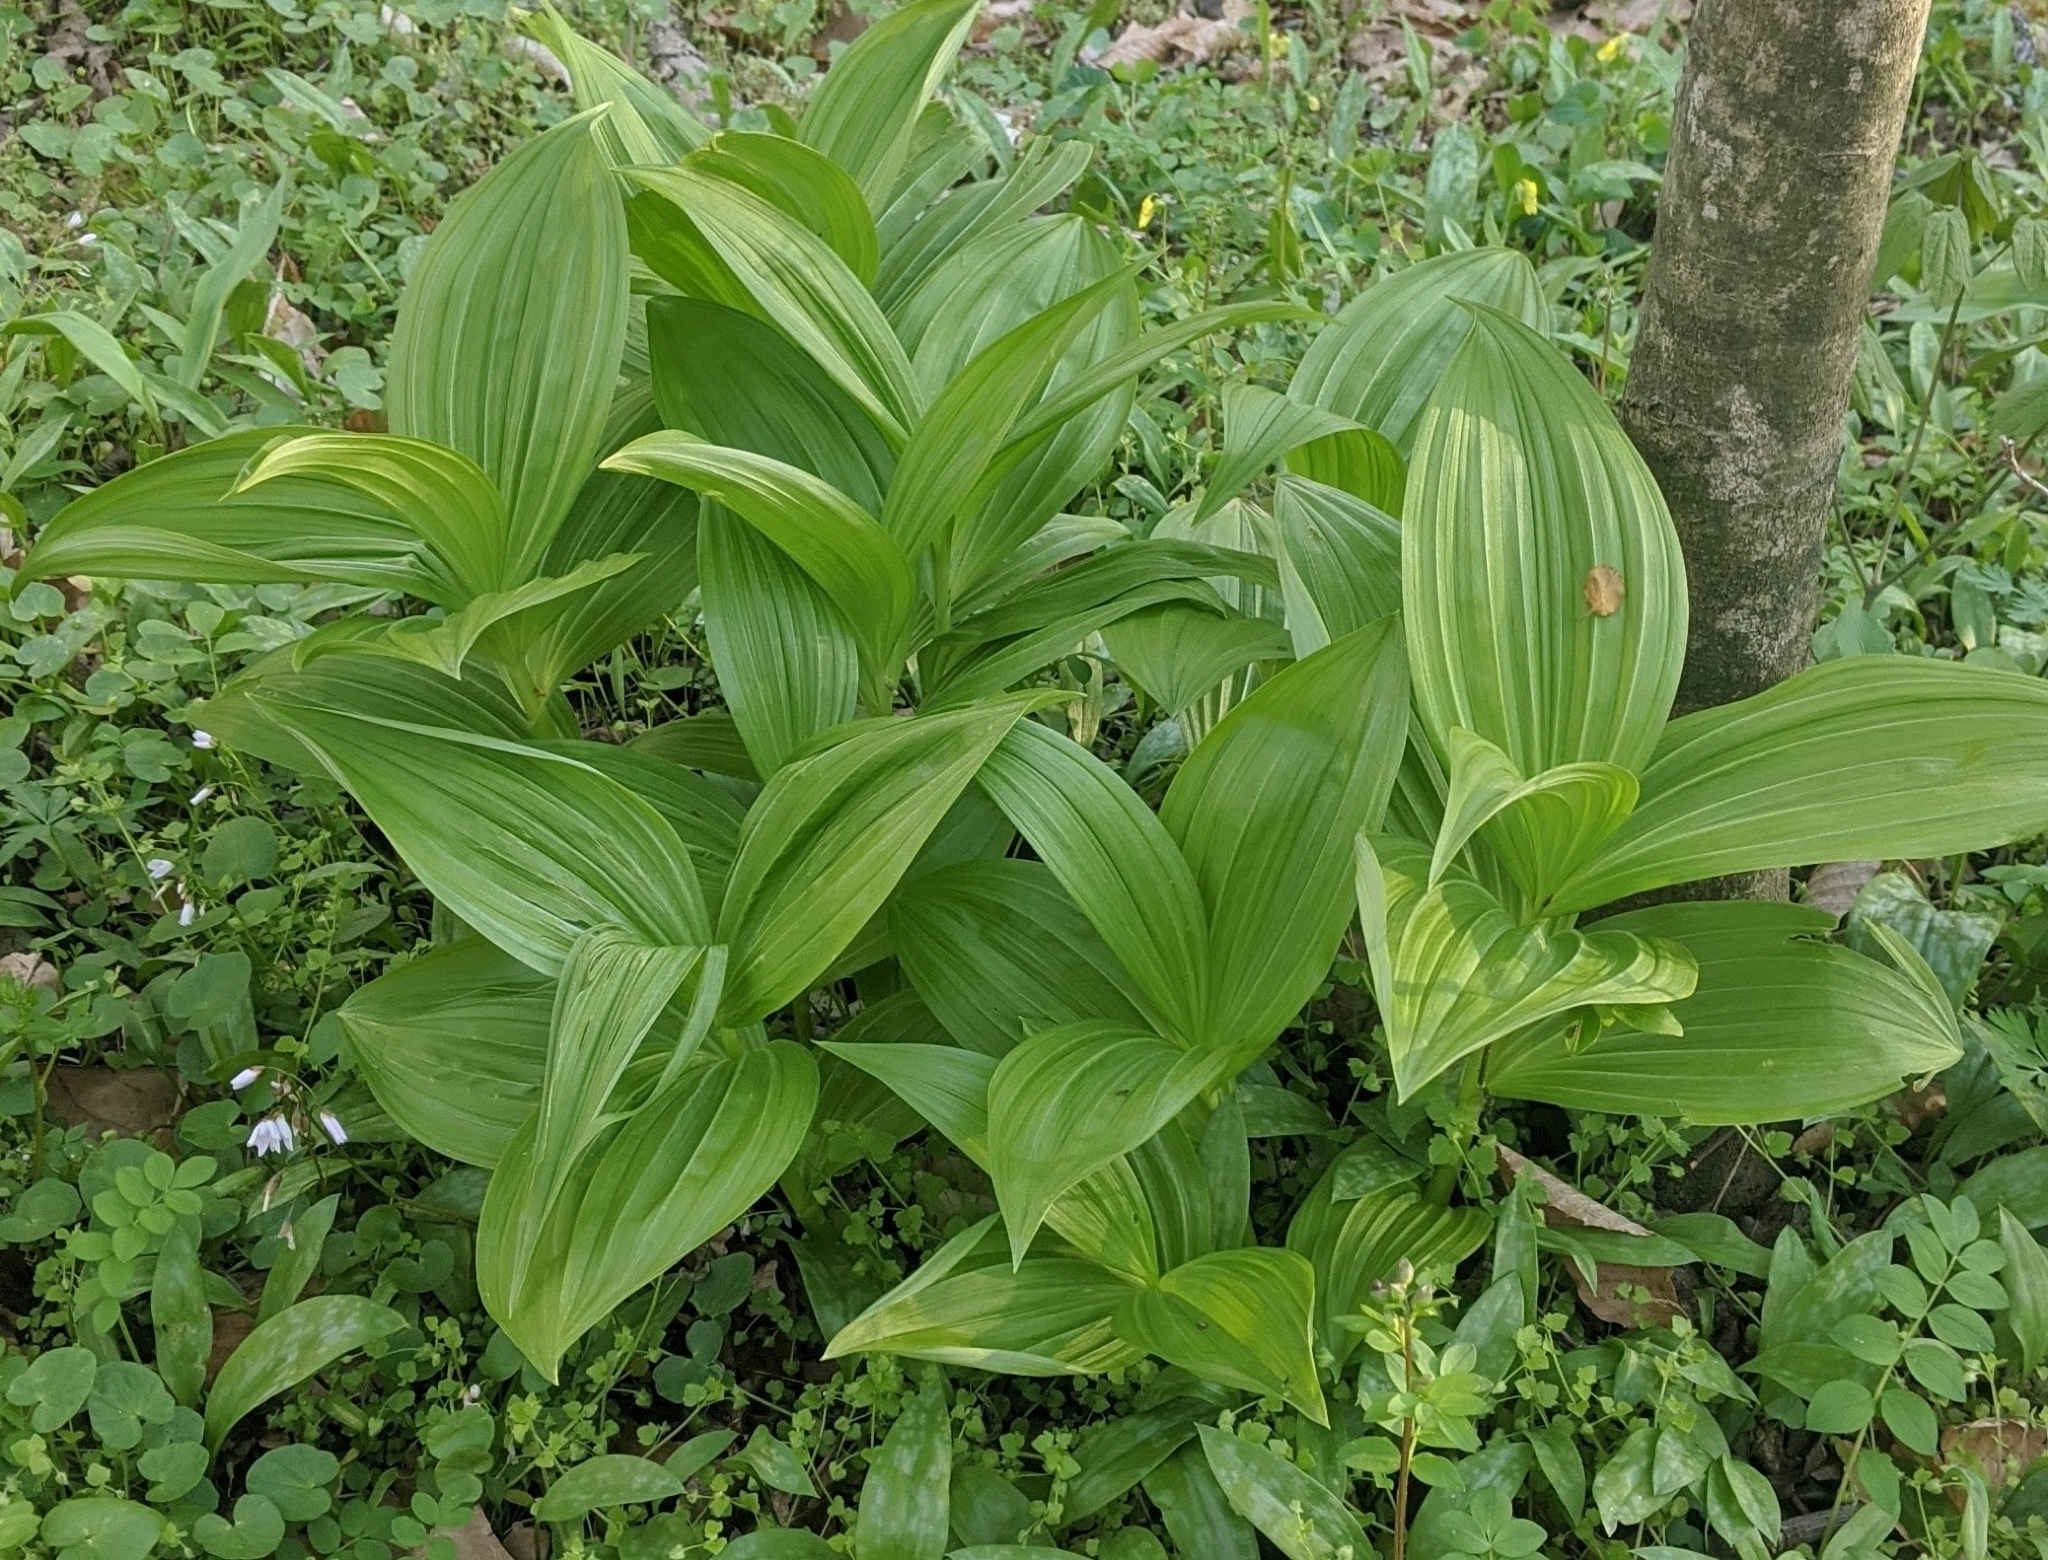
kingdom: Plantae
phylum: Tracheophyta
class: Liliopsida
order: Liliales
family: Melanthiaceae
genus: Veratrum
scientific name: Veratrum viride
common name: American false hellebore
